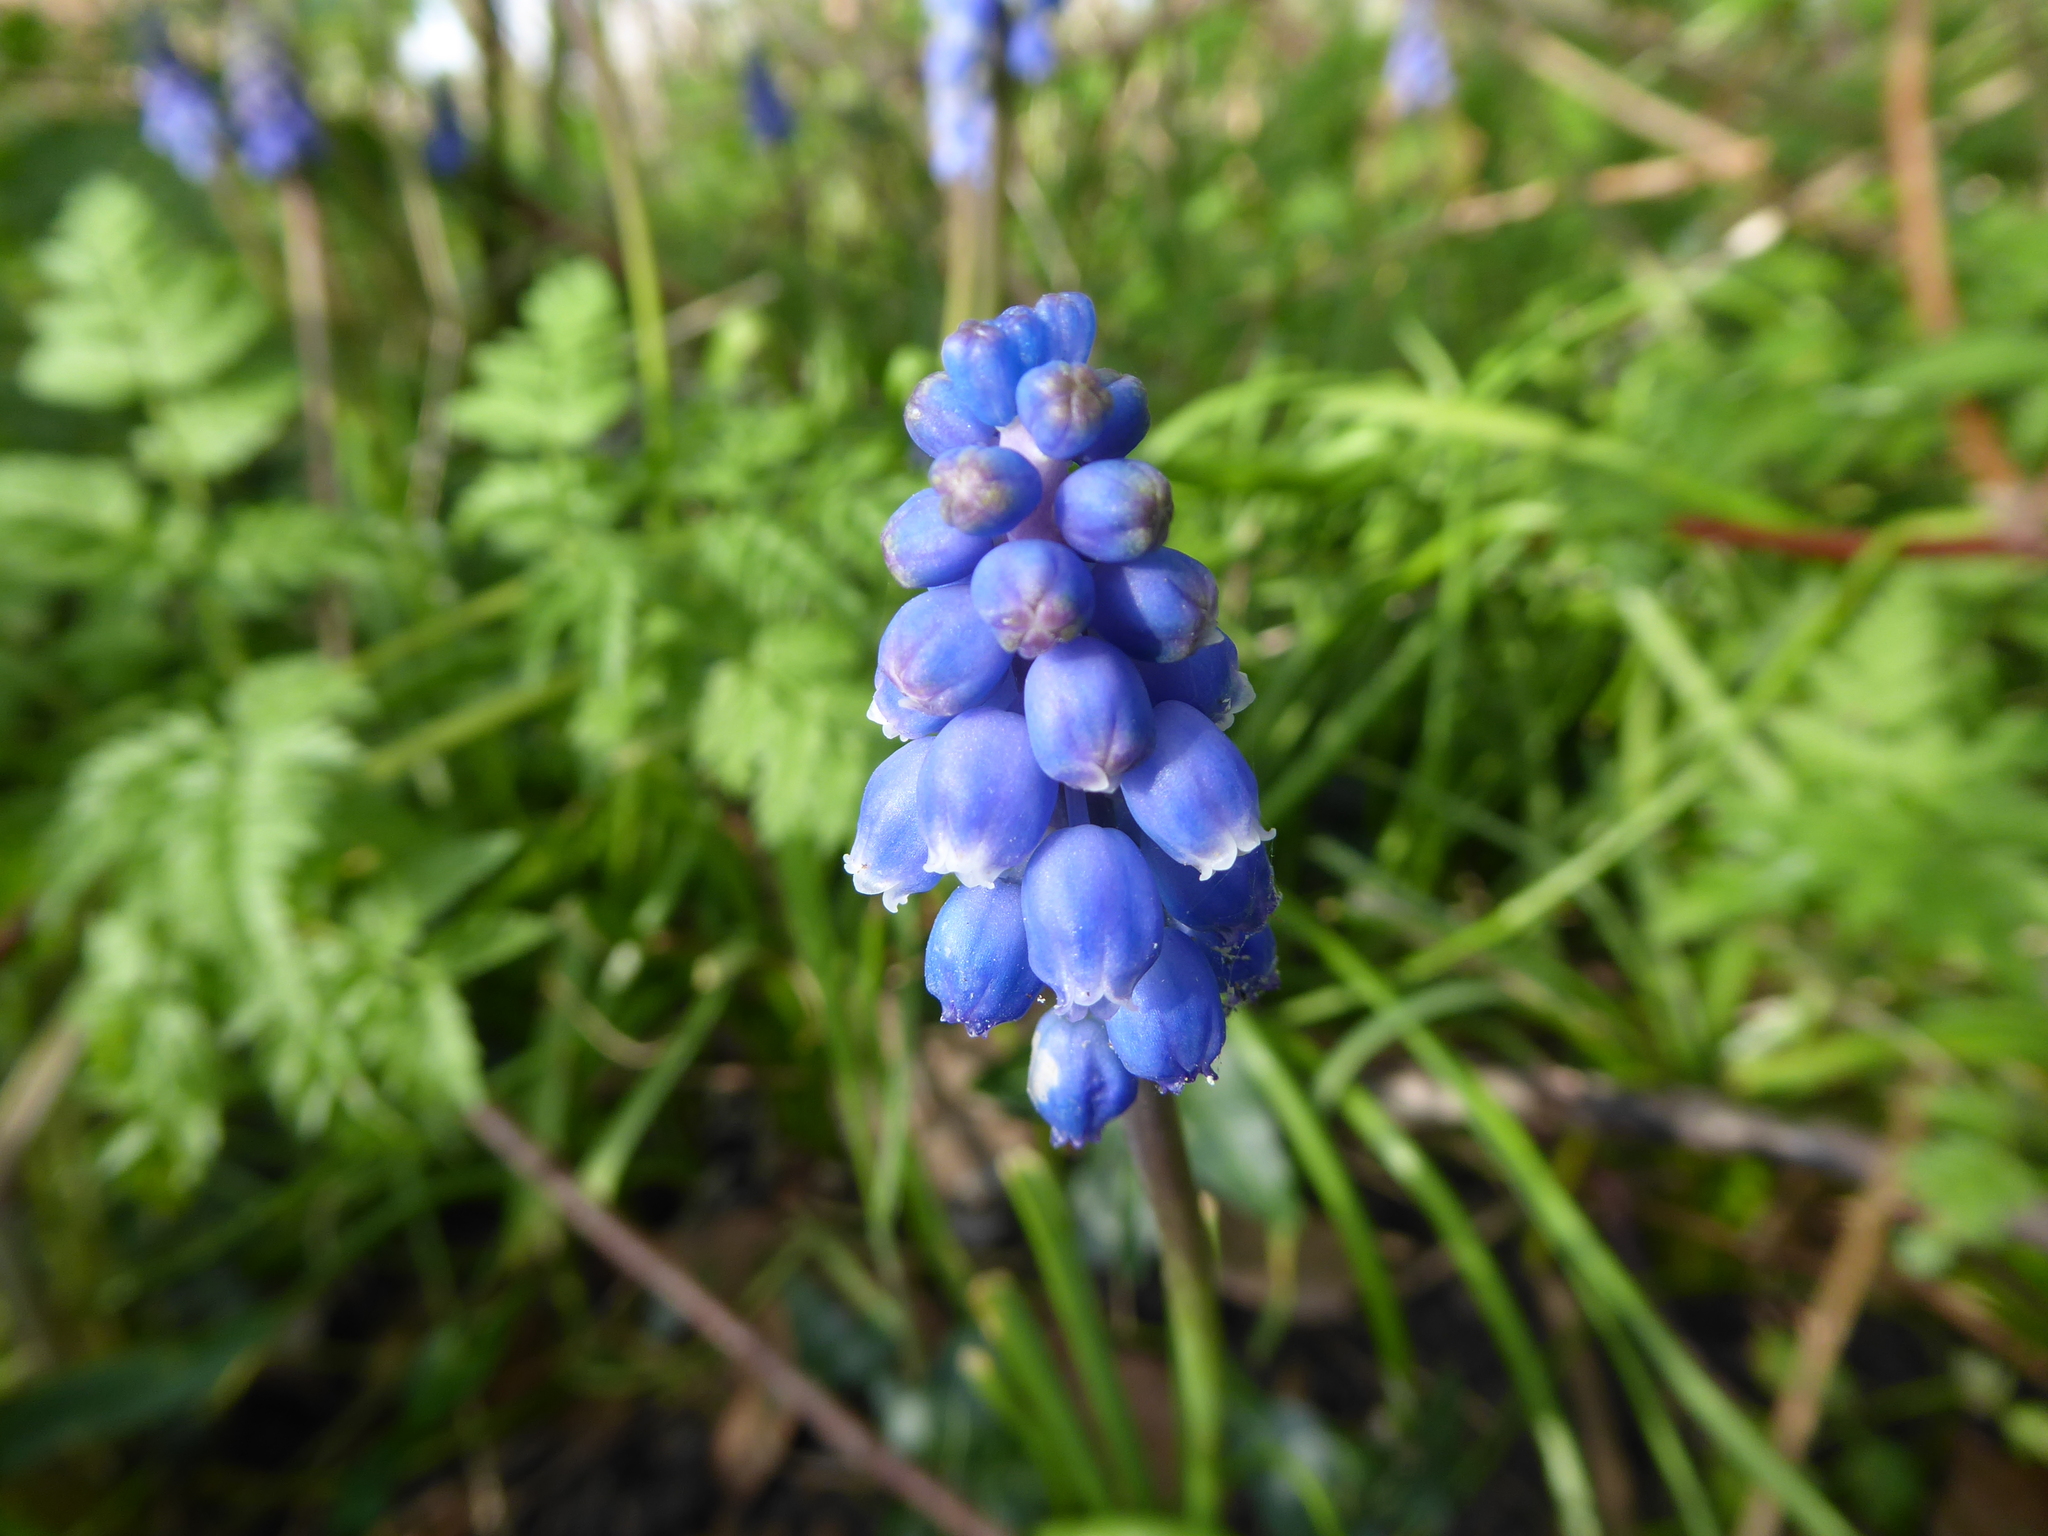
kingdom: Plantae
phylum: Tracheophyta
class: Liliopsida
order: Asparagales
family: Asparagaceae
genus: Muscari
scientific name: Muscari armeniacum
